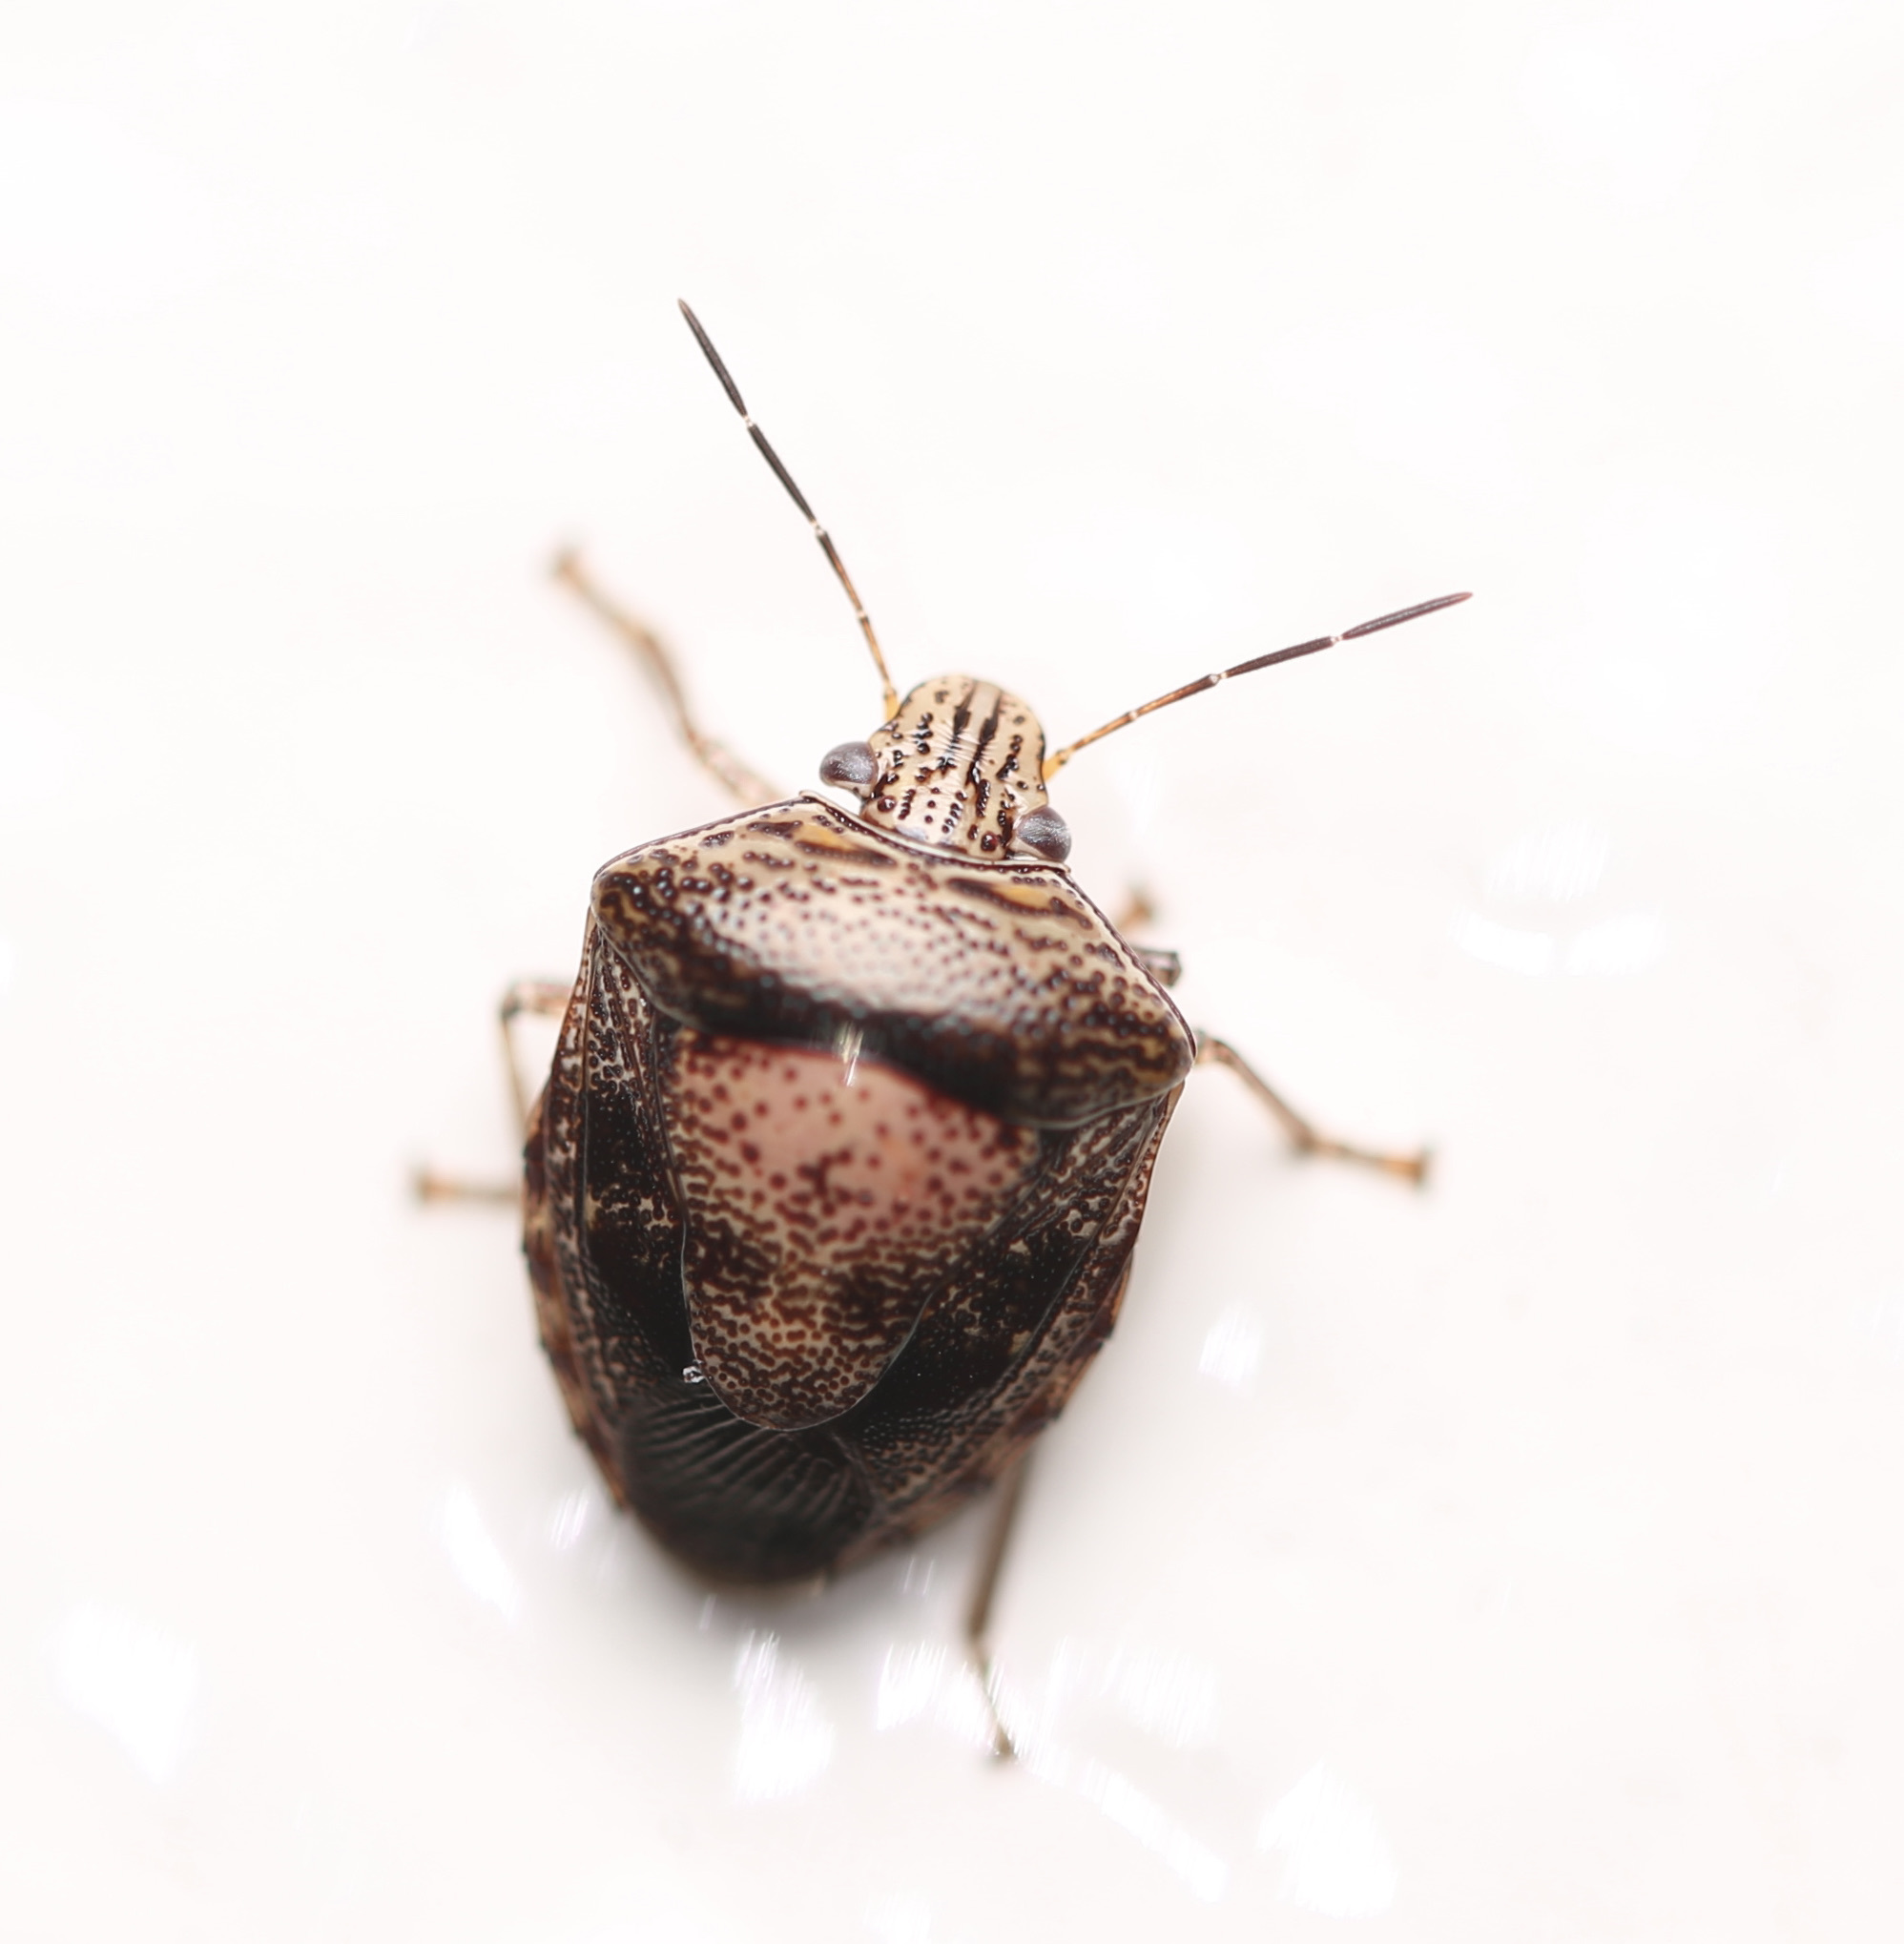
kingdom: Animalia
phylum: Arthropoda
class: Insecta
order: Hemiptera
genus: Oncotropis
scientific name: Oncotropis
